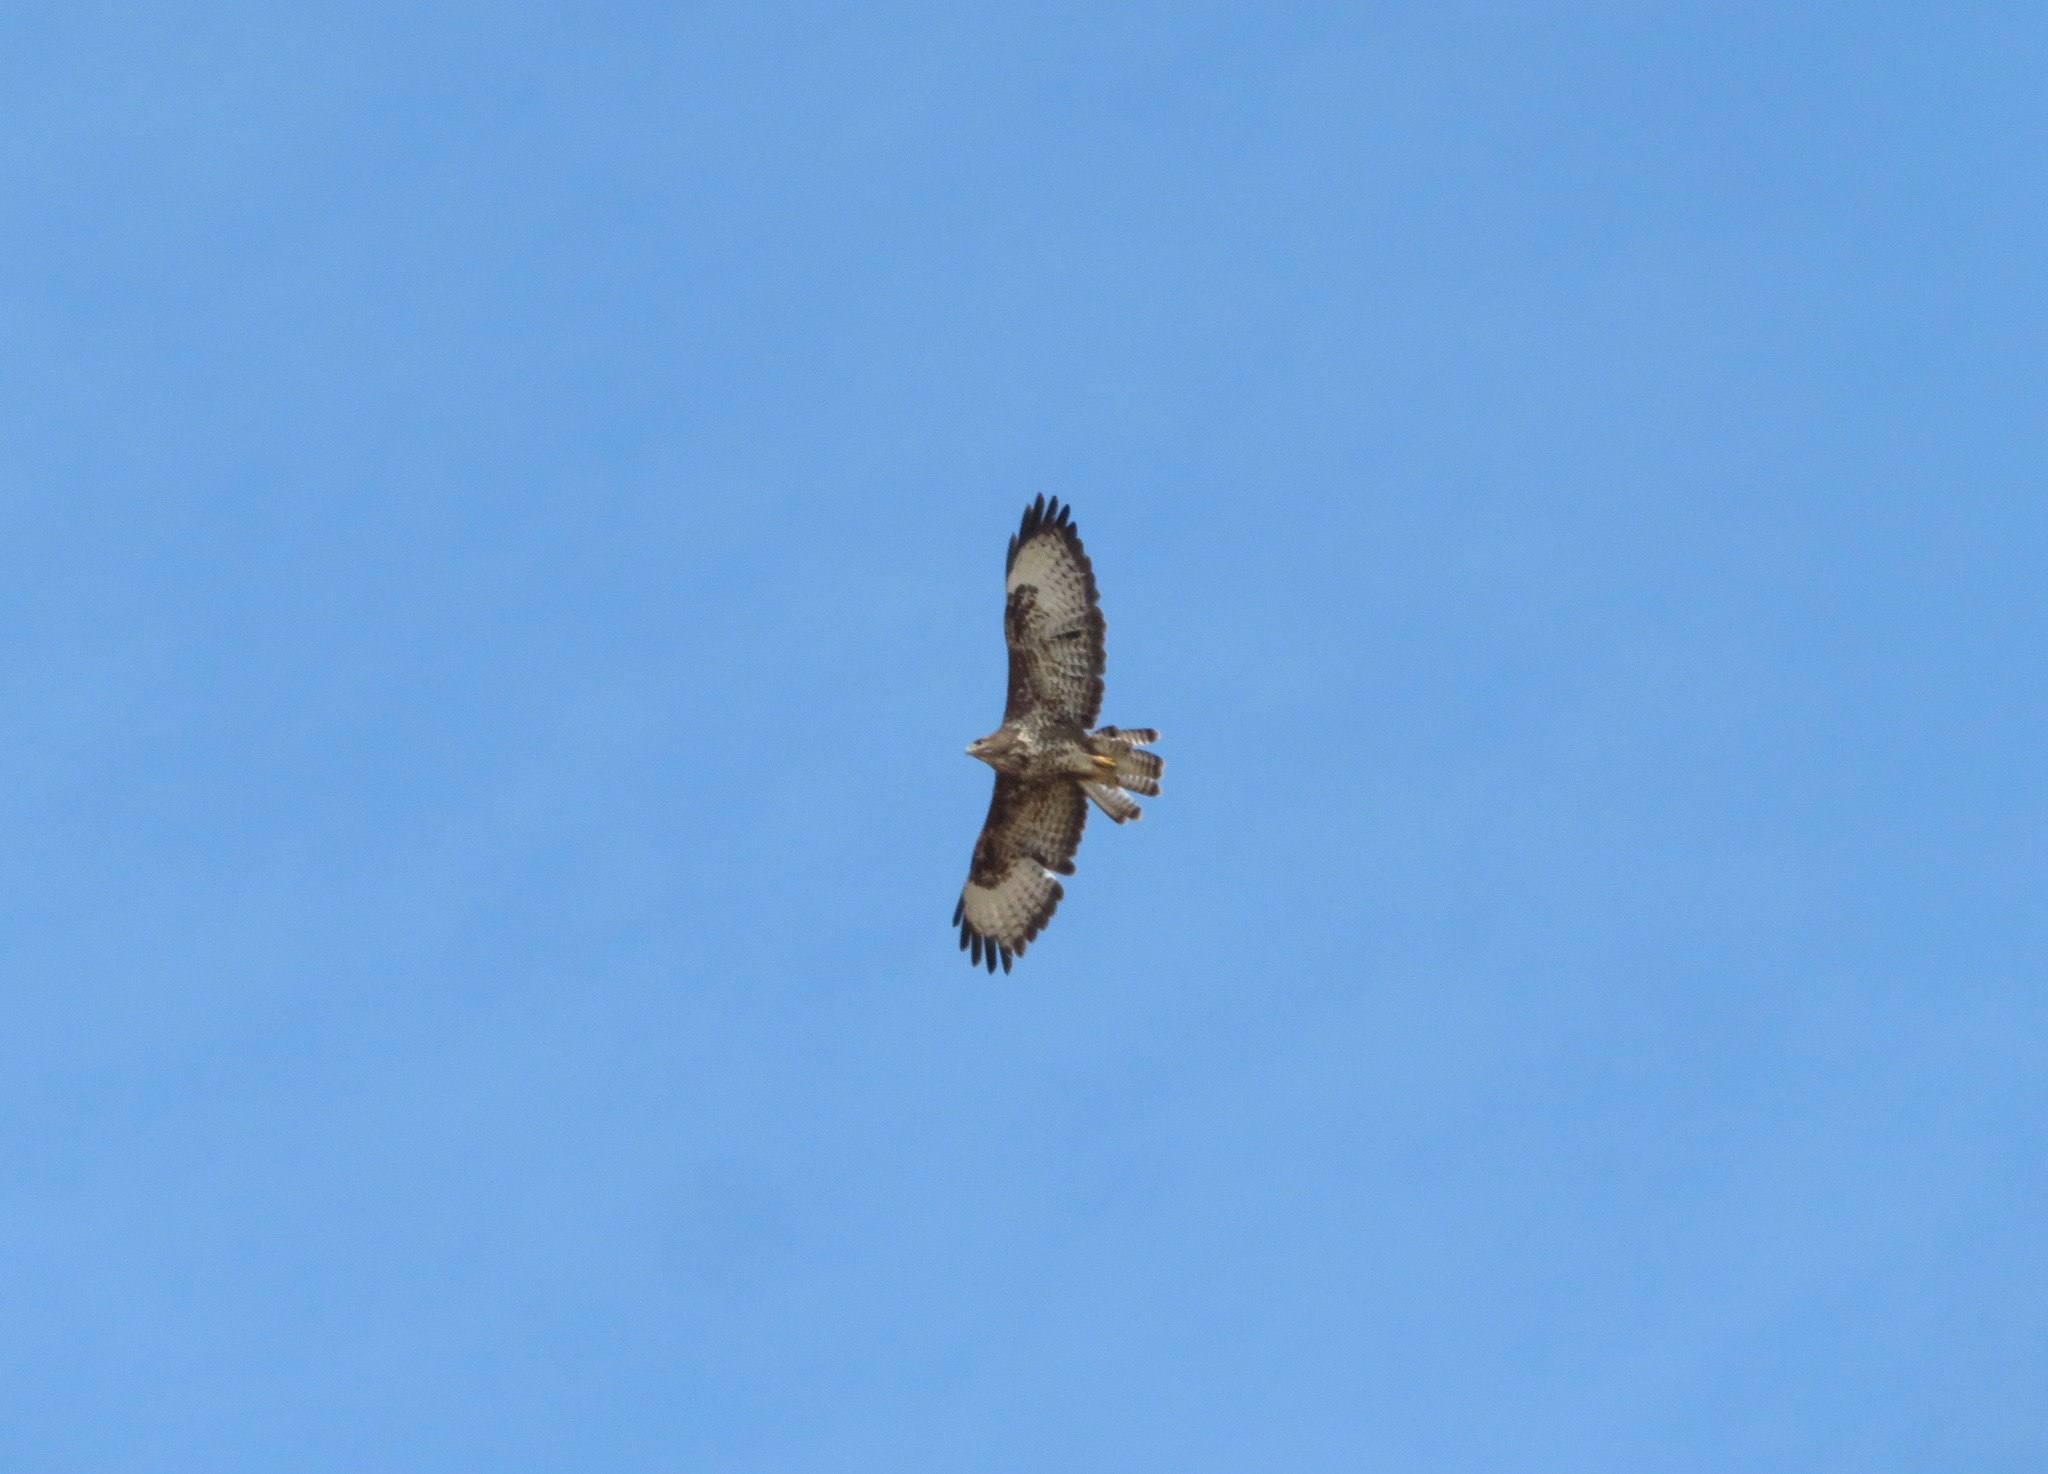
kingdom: Animalia
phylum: Chordata
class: Aves
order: Accipitriformes
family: Accipitridae
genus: Buteo
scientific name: Buteo buteo
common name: Common buzzard
